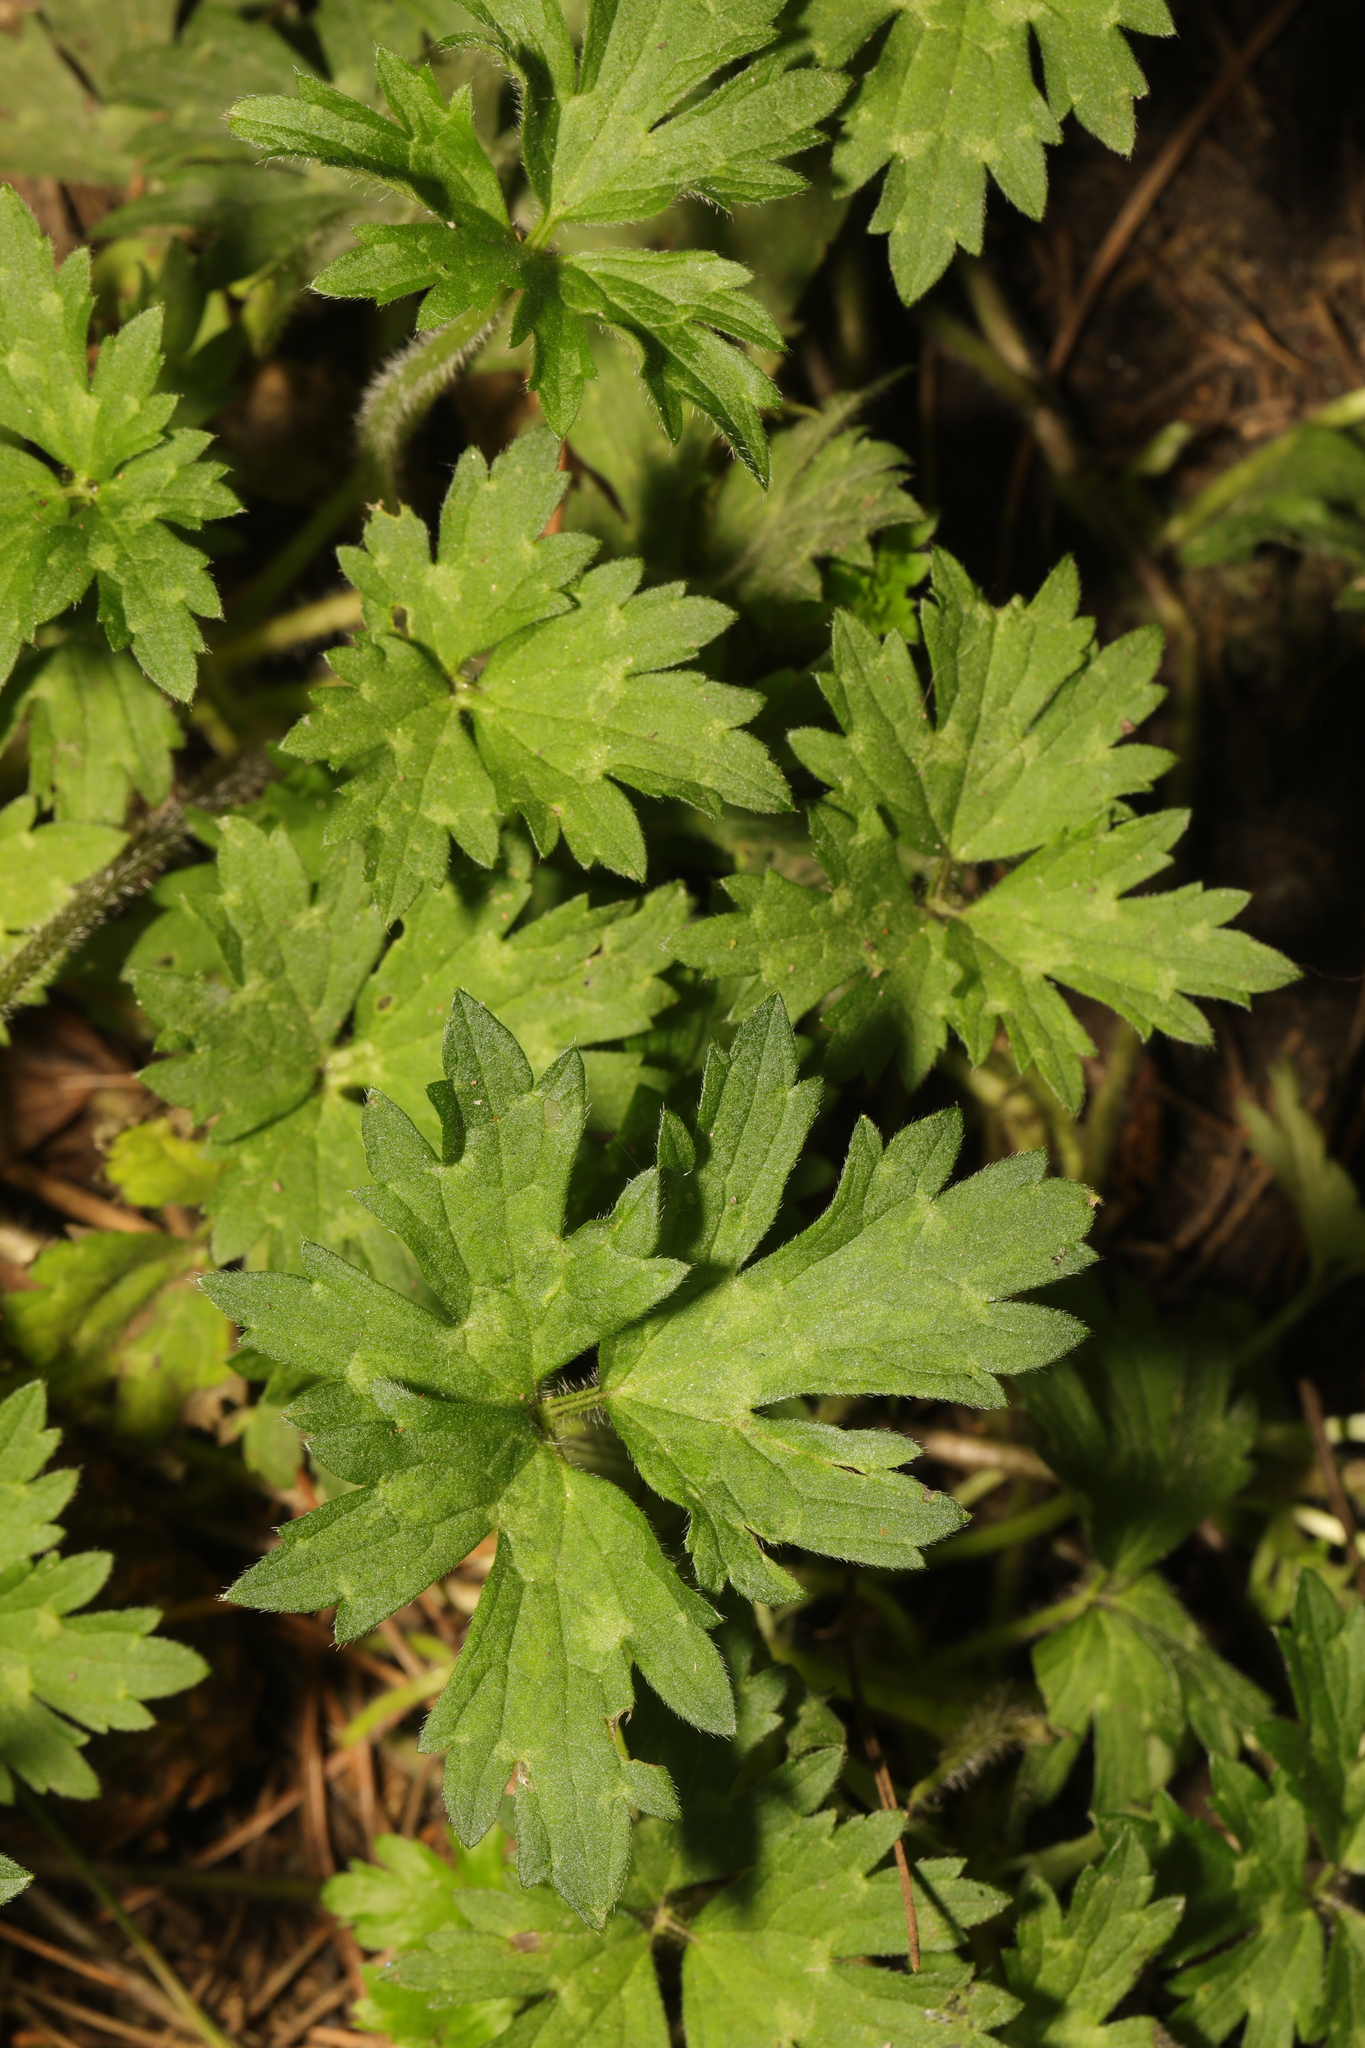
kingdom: Plantae
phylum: Tracheophyta
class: Magnoliopsida
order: Ranunculales
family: Ranunculaceae
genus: Ranunculus
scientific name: Ranunculus repens
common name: Creeping buttercup
